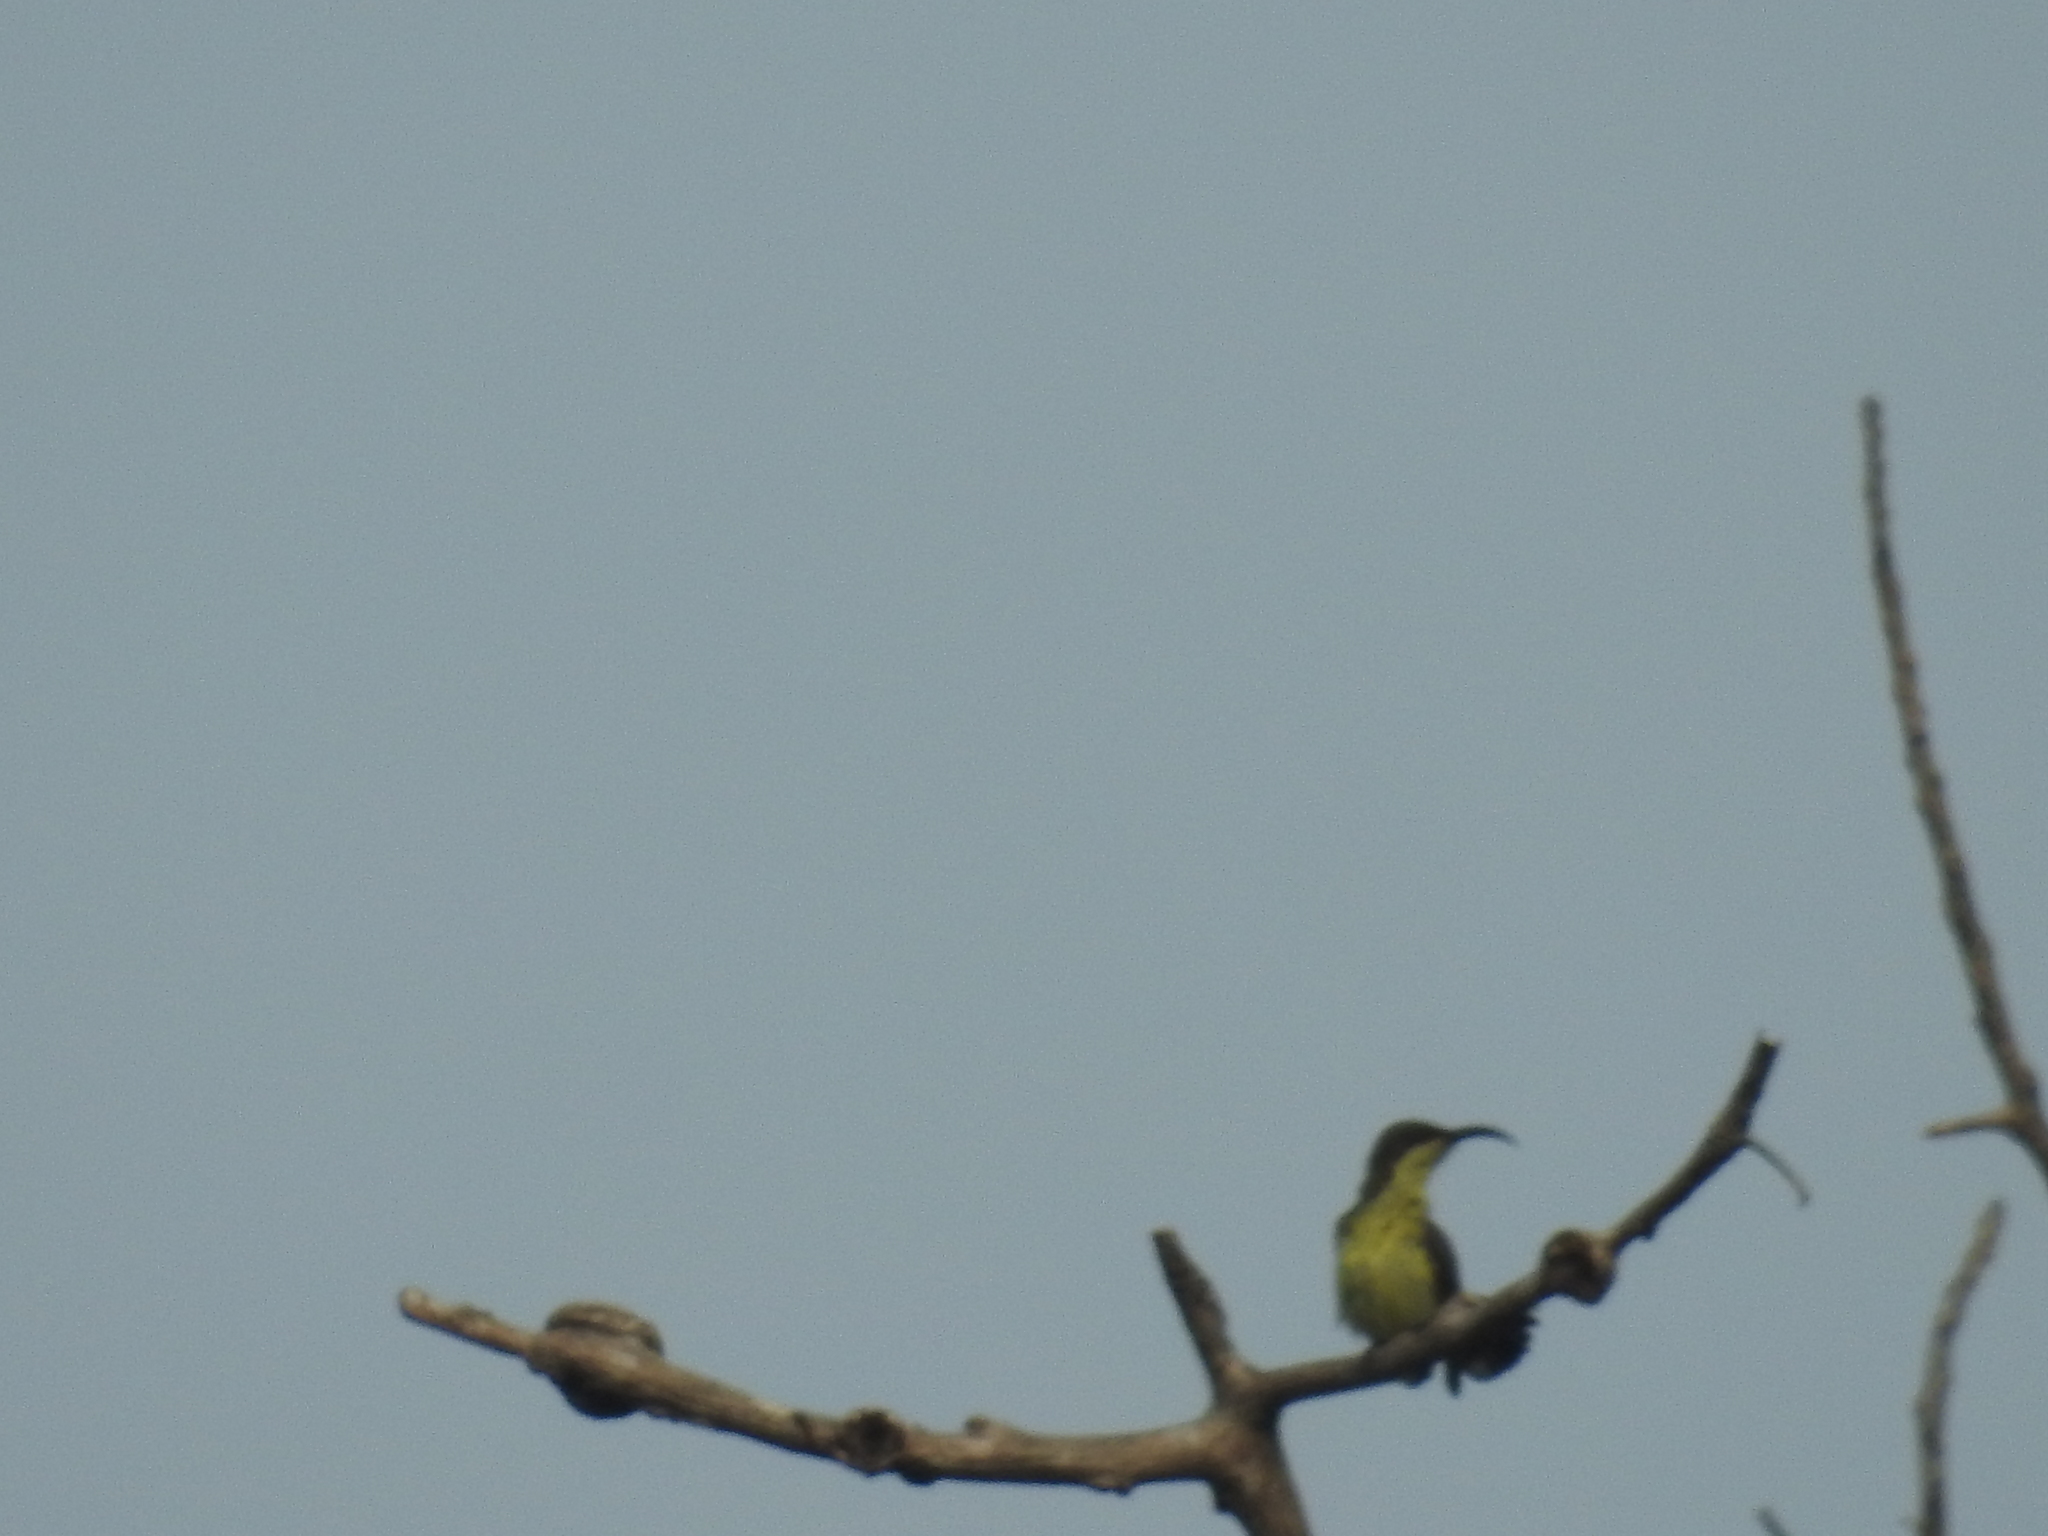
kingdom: Animalia
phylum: Chordata
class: Aves
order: Passeriformes
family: Nectariniidae
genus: Cinnyris
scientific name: Cinnyris lotenius
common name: Loten's sunbird
